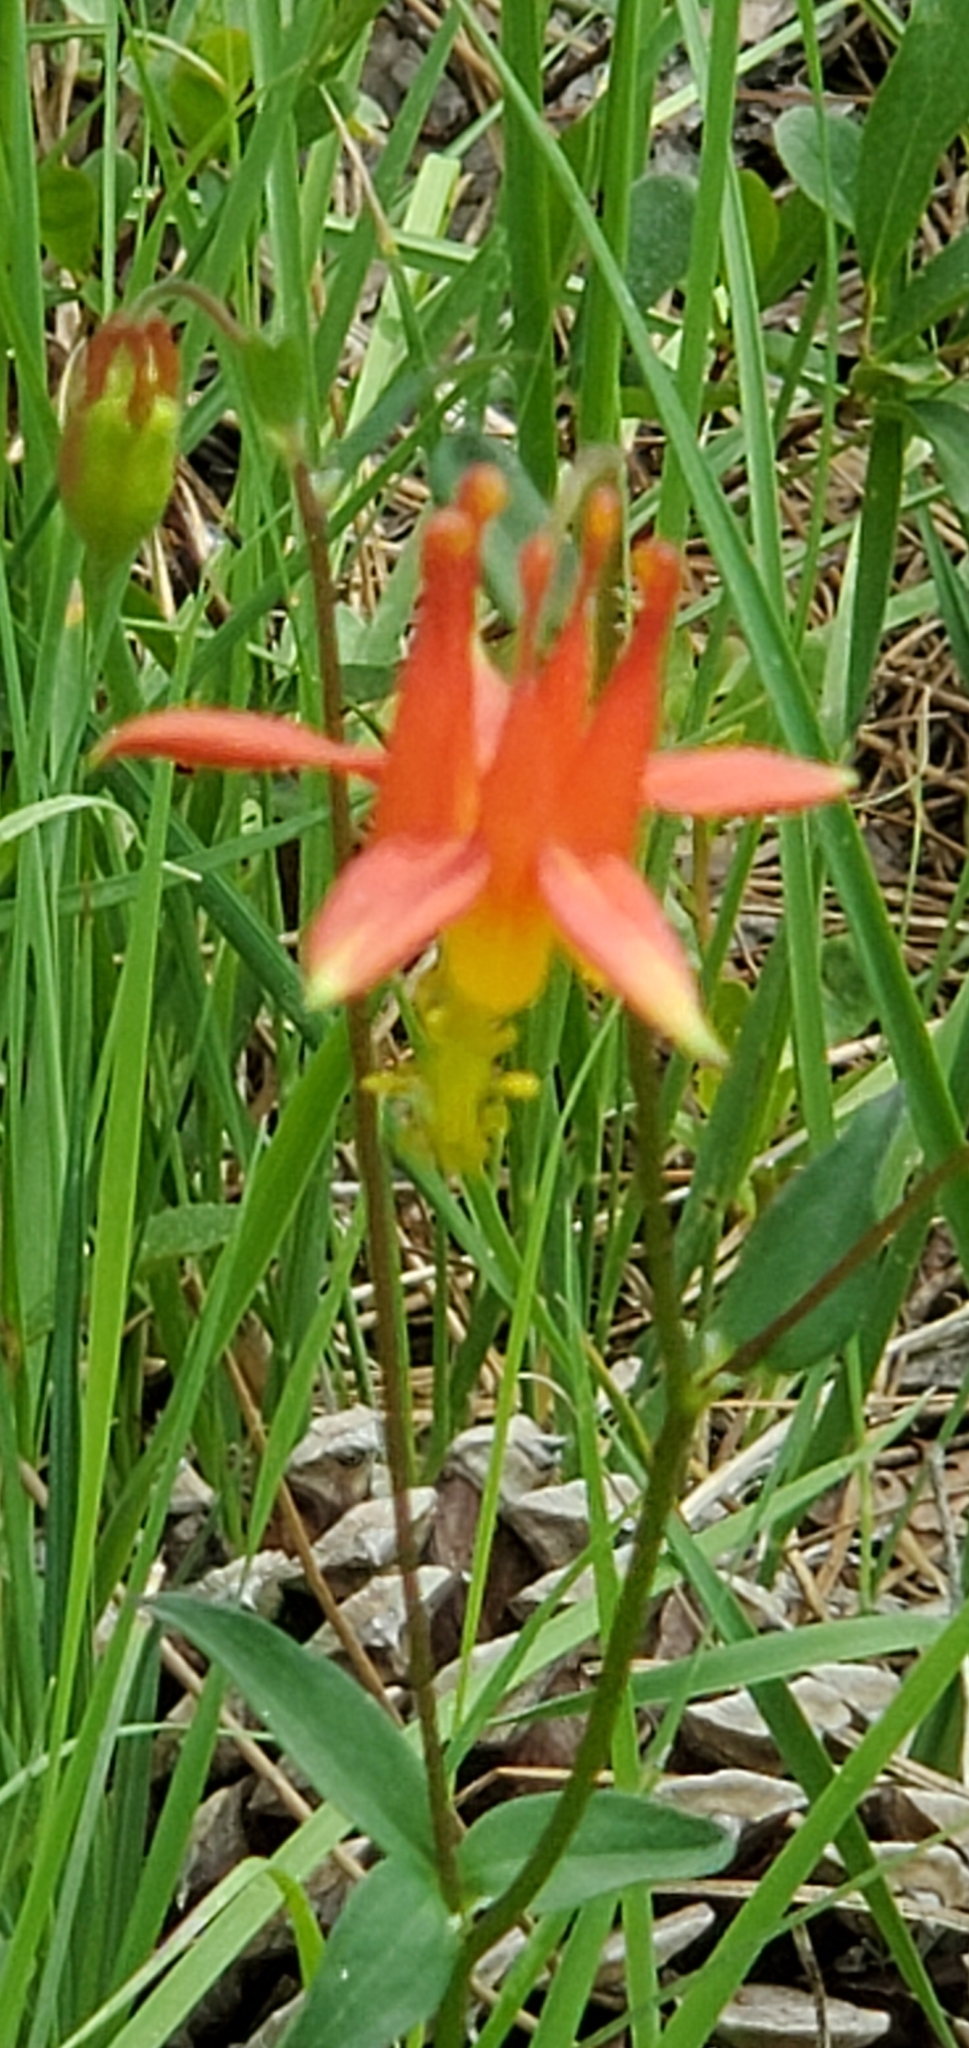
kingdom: Plantae
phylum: Tracheophyta
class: Magnoliopsida
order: Ranunculales
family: Ranunculaceae
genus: Aquilegia
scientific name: Aquilegia formosa
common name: Sitka columbine
